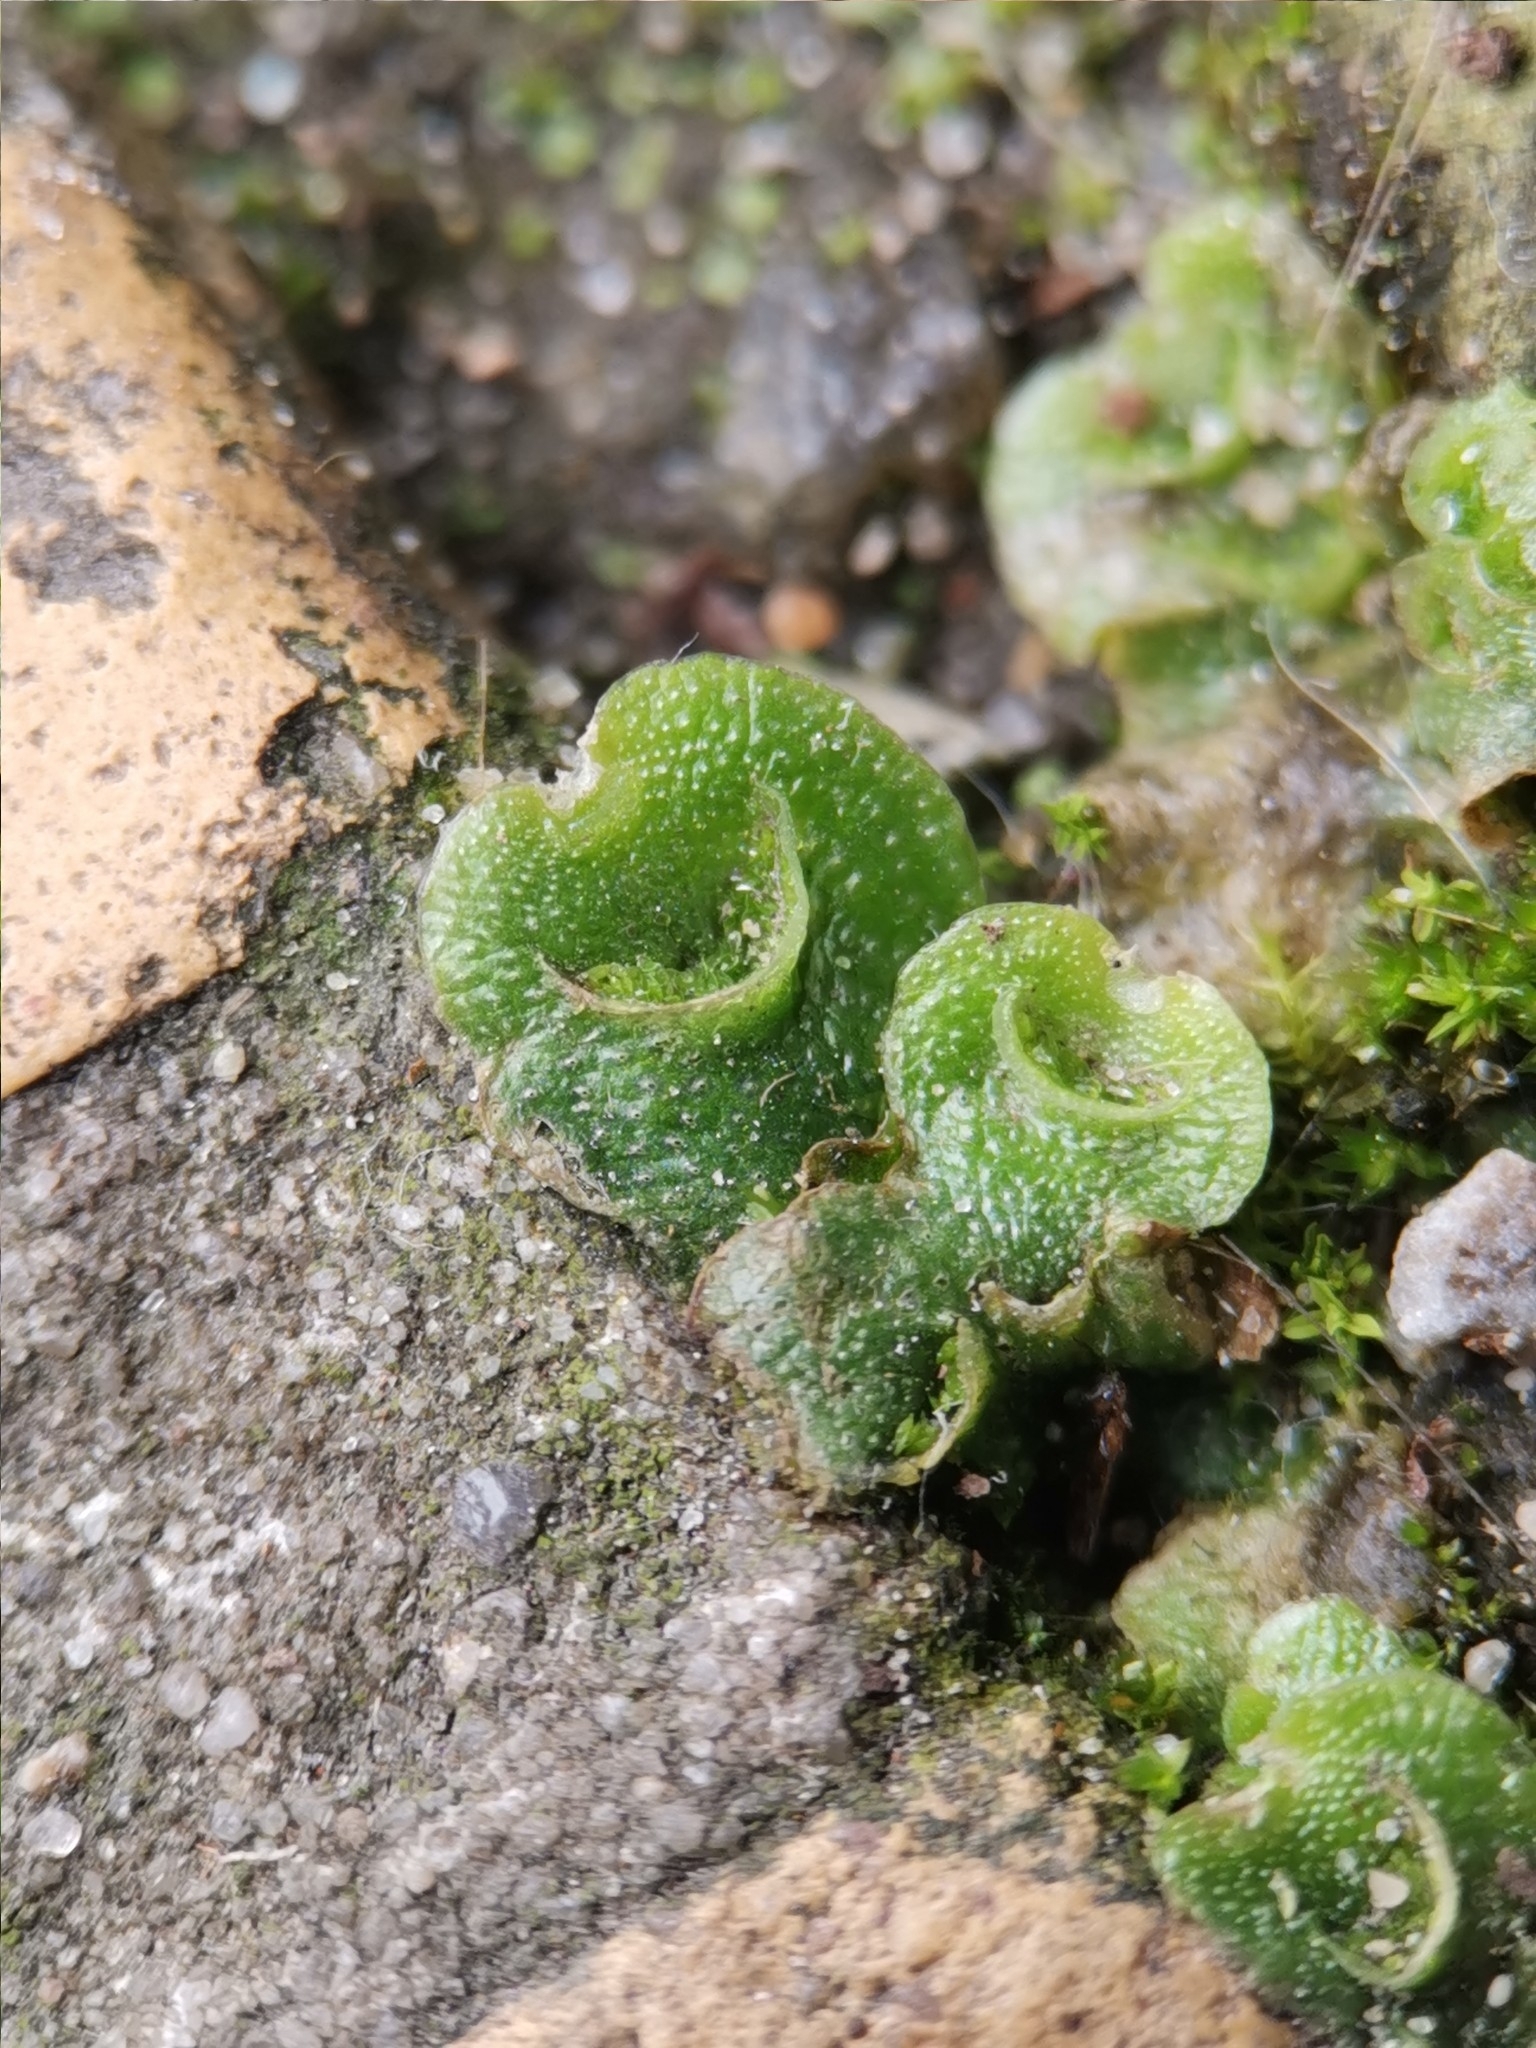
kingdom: Plantae
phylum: Marchantiophyta
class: Marchantiopsida
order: Lunulariales
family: Lunulariaceae
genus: Lunularia
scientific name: Lunularia cruciata
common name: Crescent-cup liverwort
